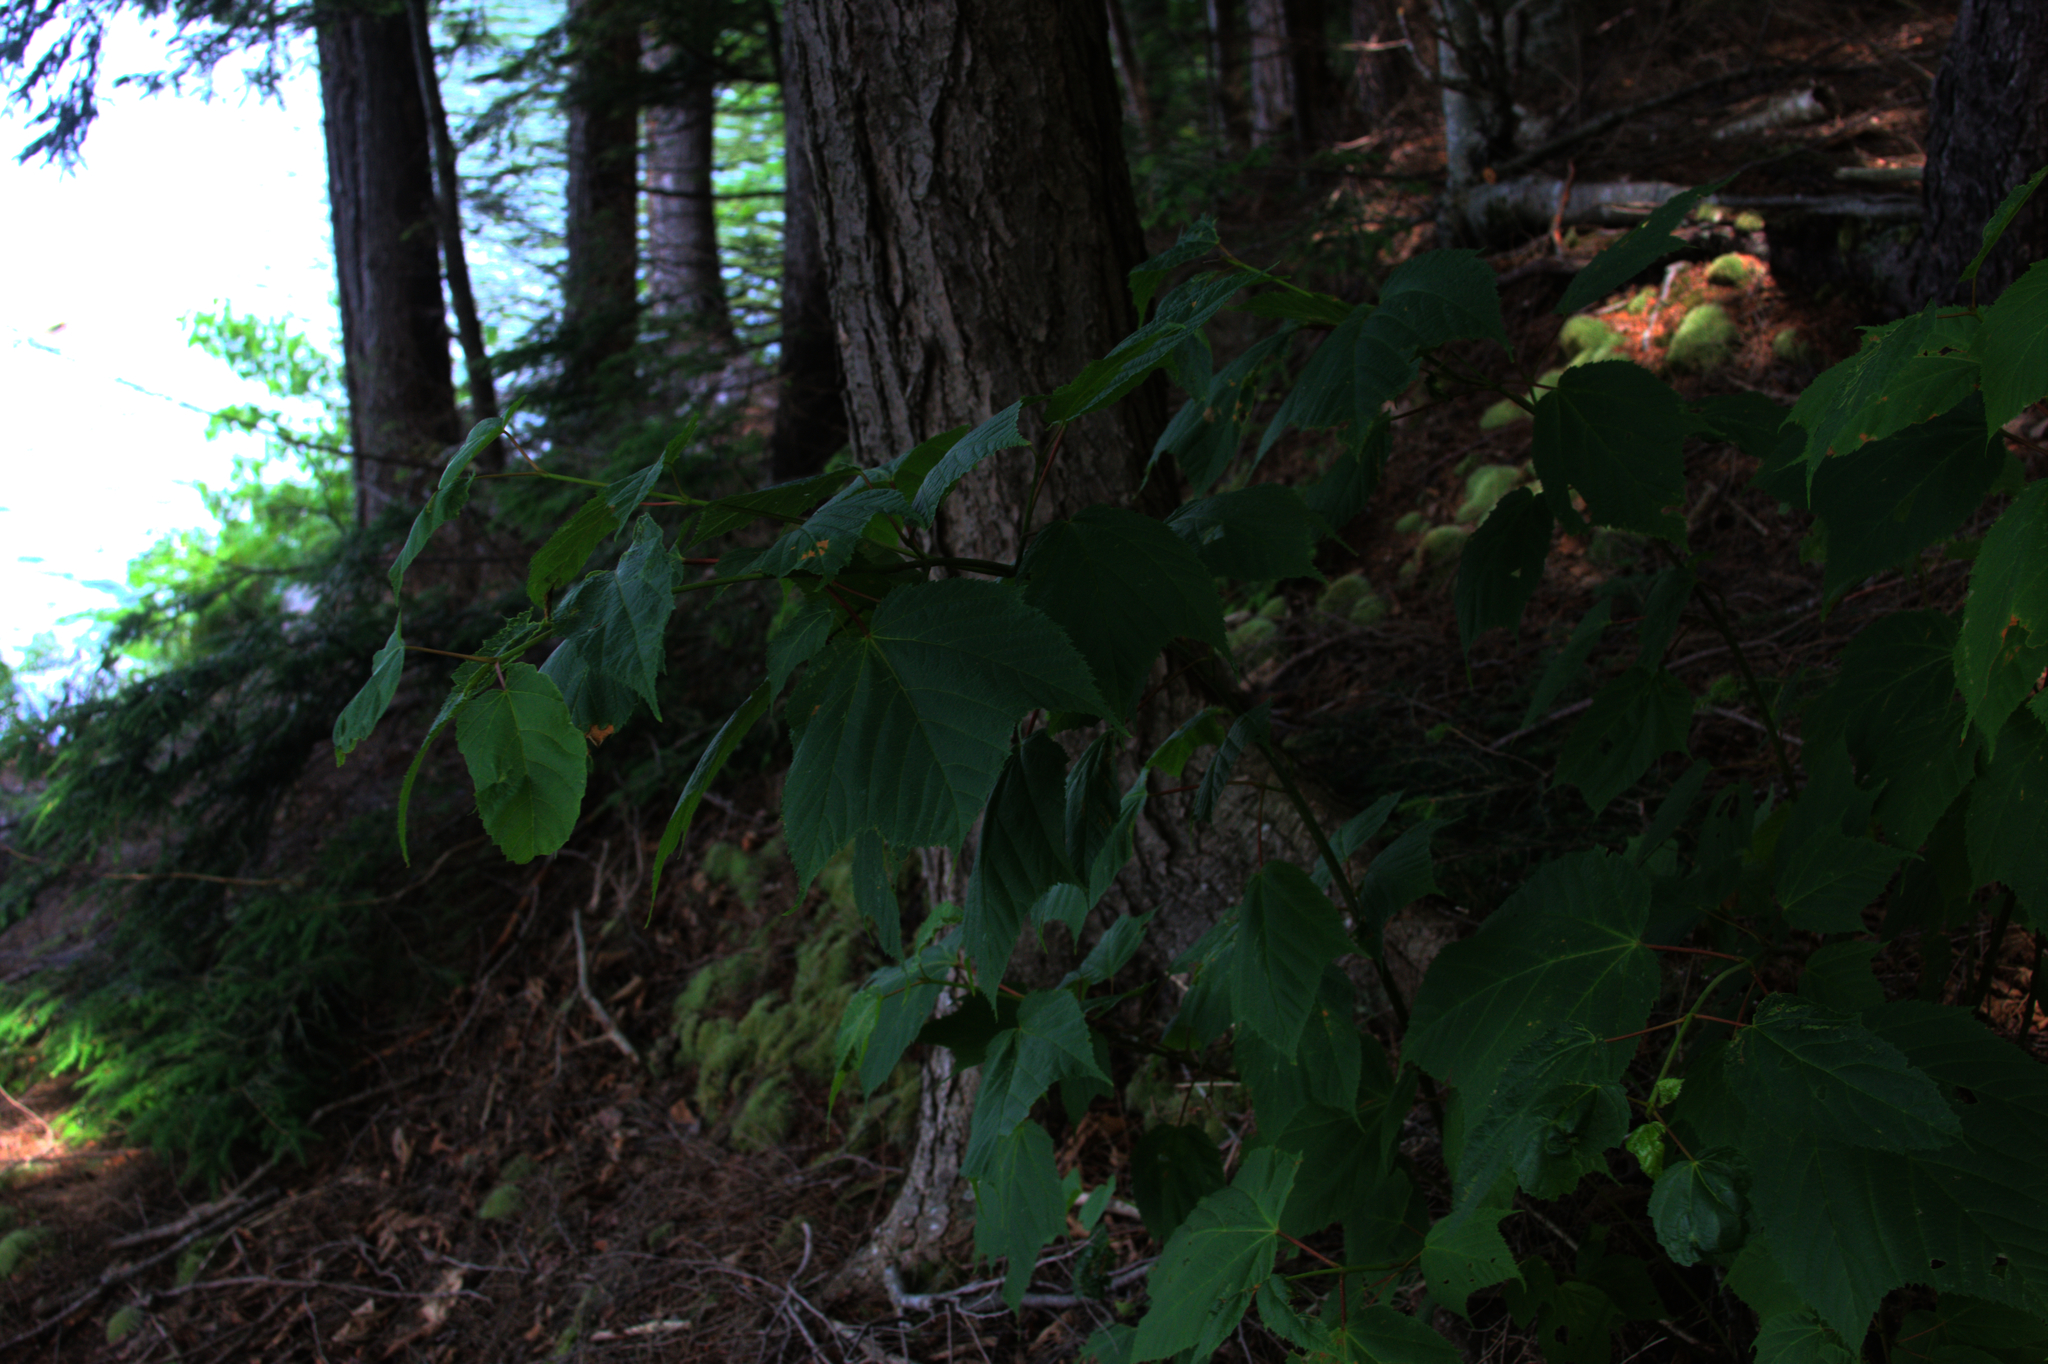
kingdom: Plantae
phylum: Tracheophyta
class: Magnoliopsida
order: Sapindales
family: Sapindaceae
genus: Acer
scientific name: Acer pensylvanicum
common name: Moosewood
